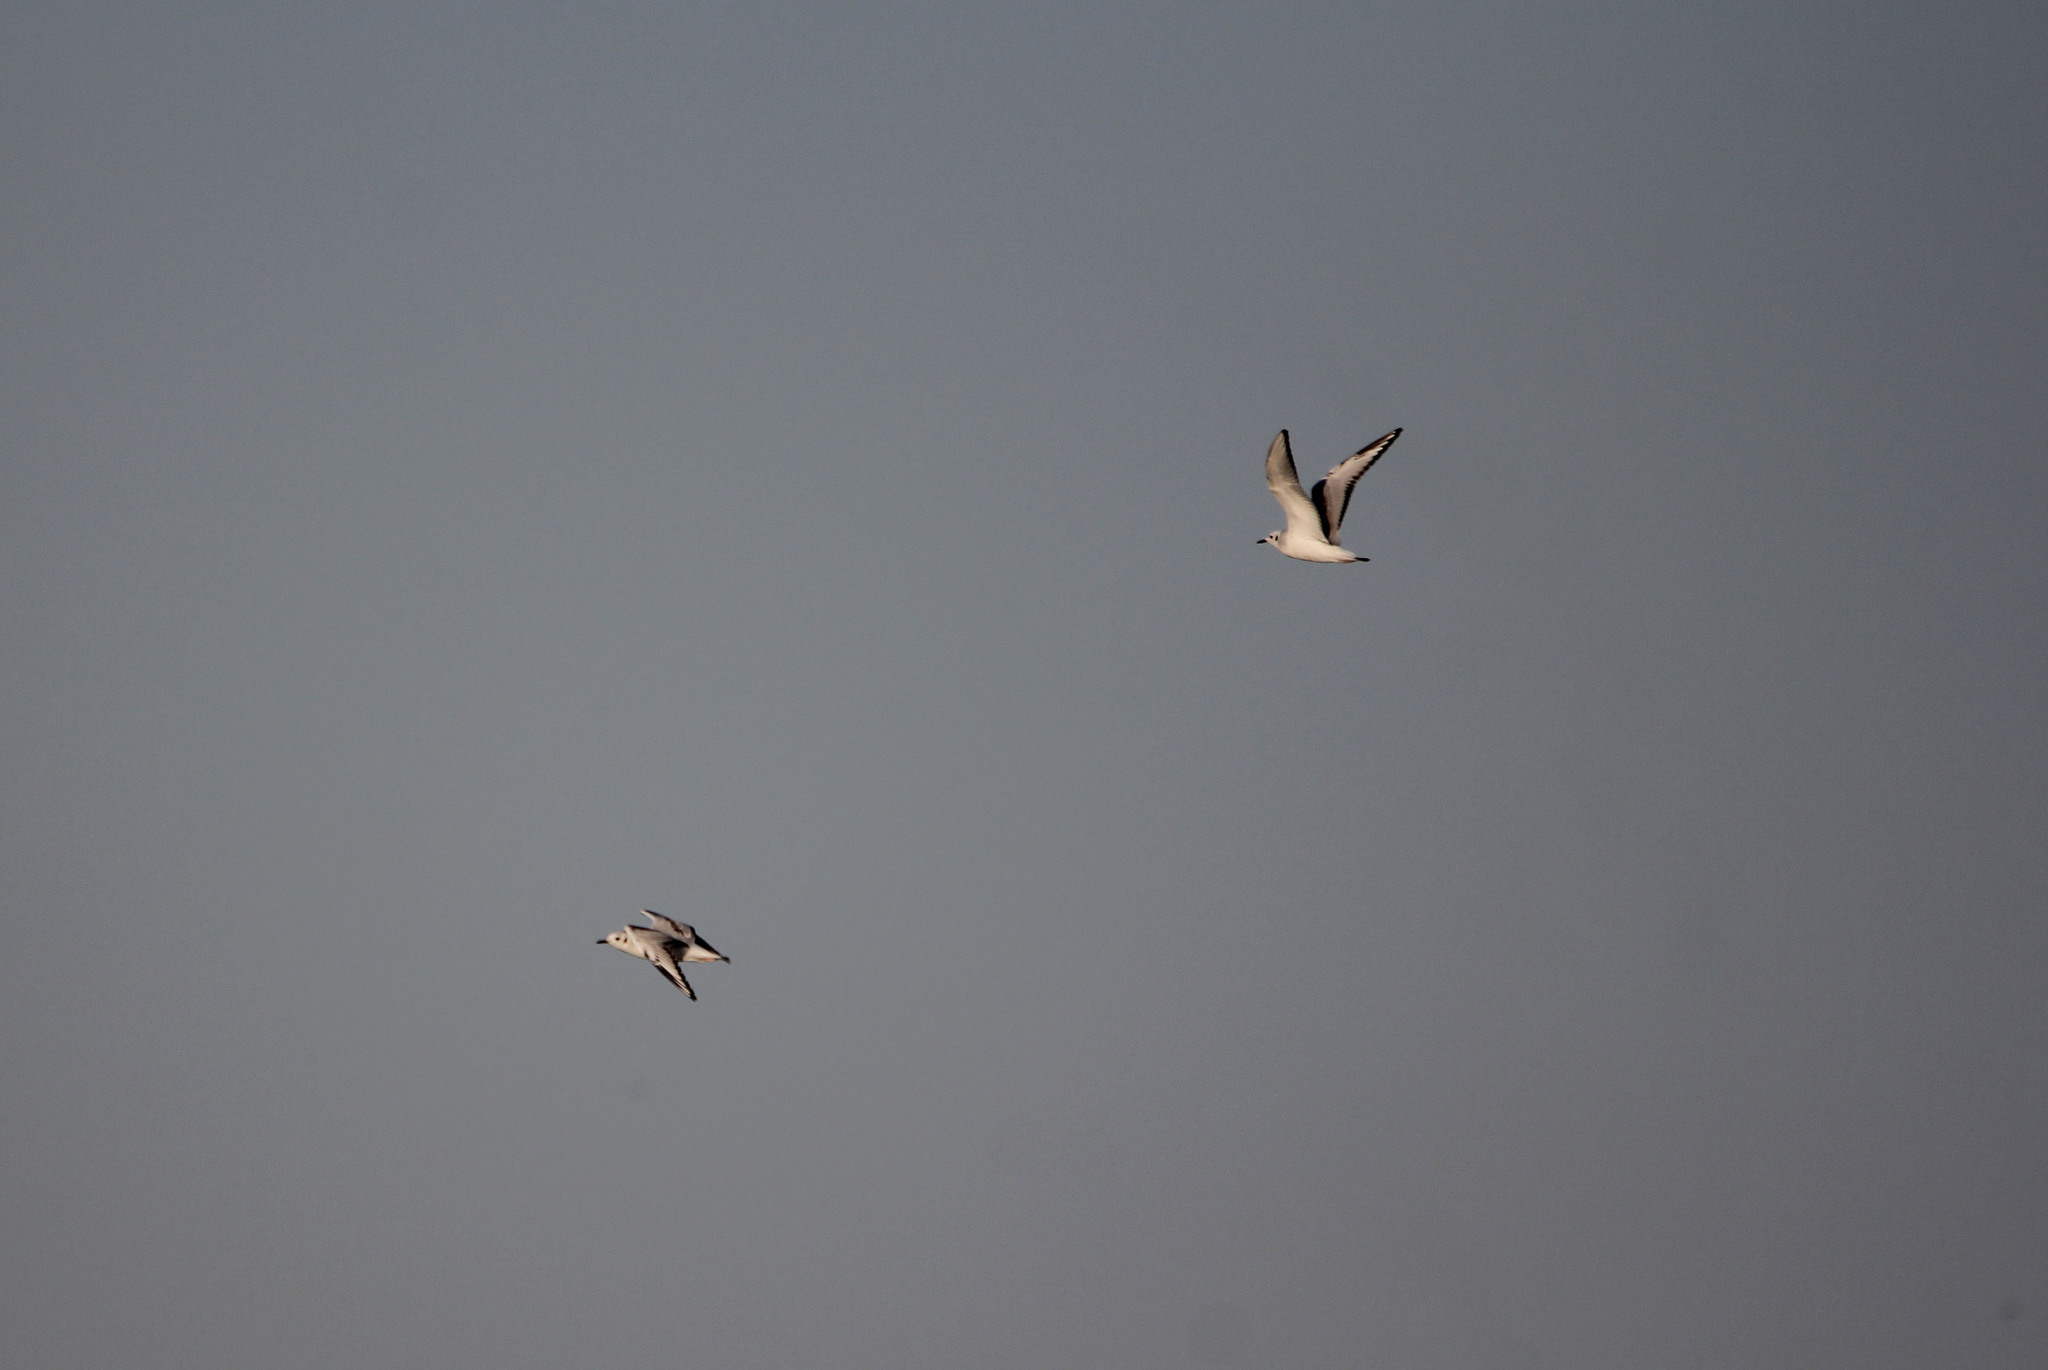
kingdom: Animalia
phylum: Chordata
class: Aves
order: Charadriiformes
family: Laridae
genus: Chroicocephalus
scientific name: Chroicocephalus philadelphia
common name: Bonaparte's gull
